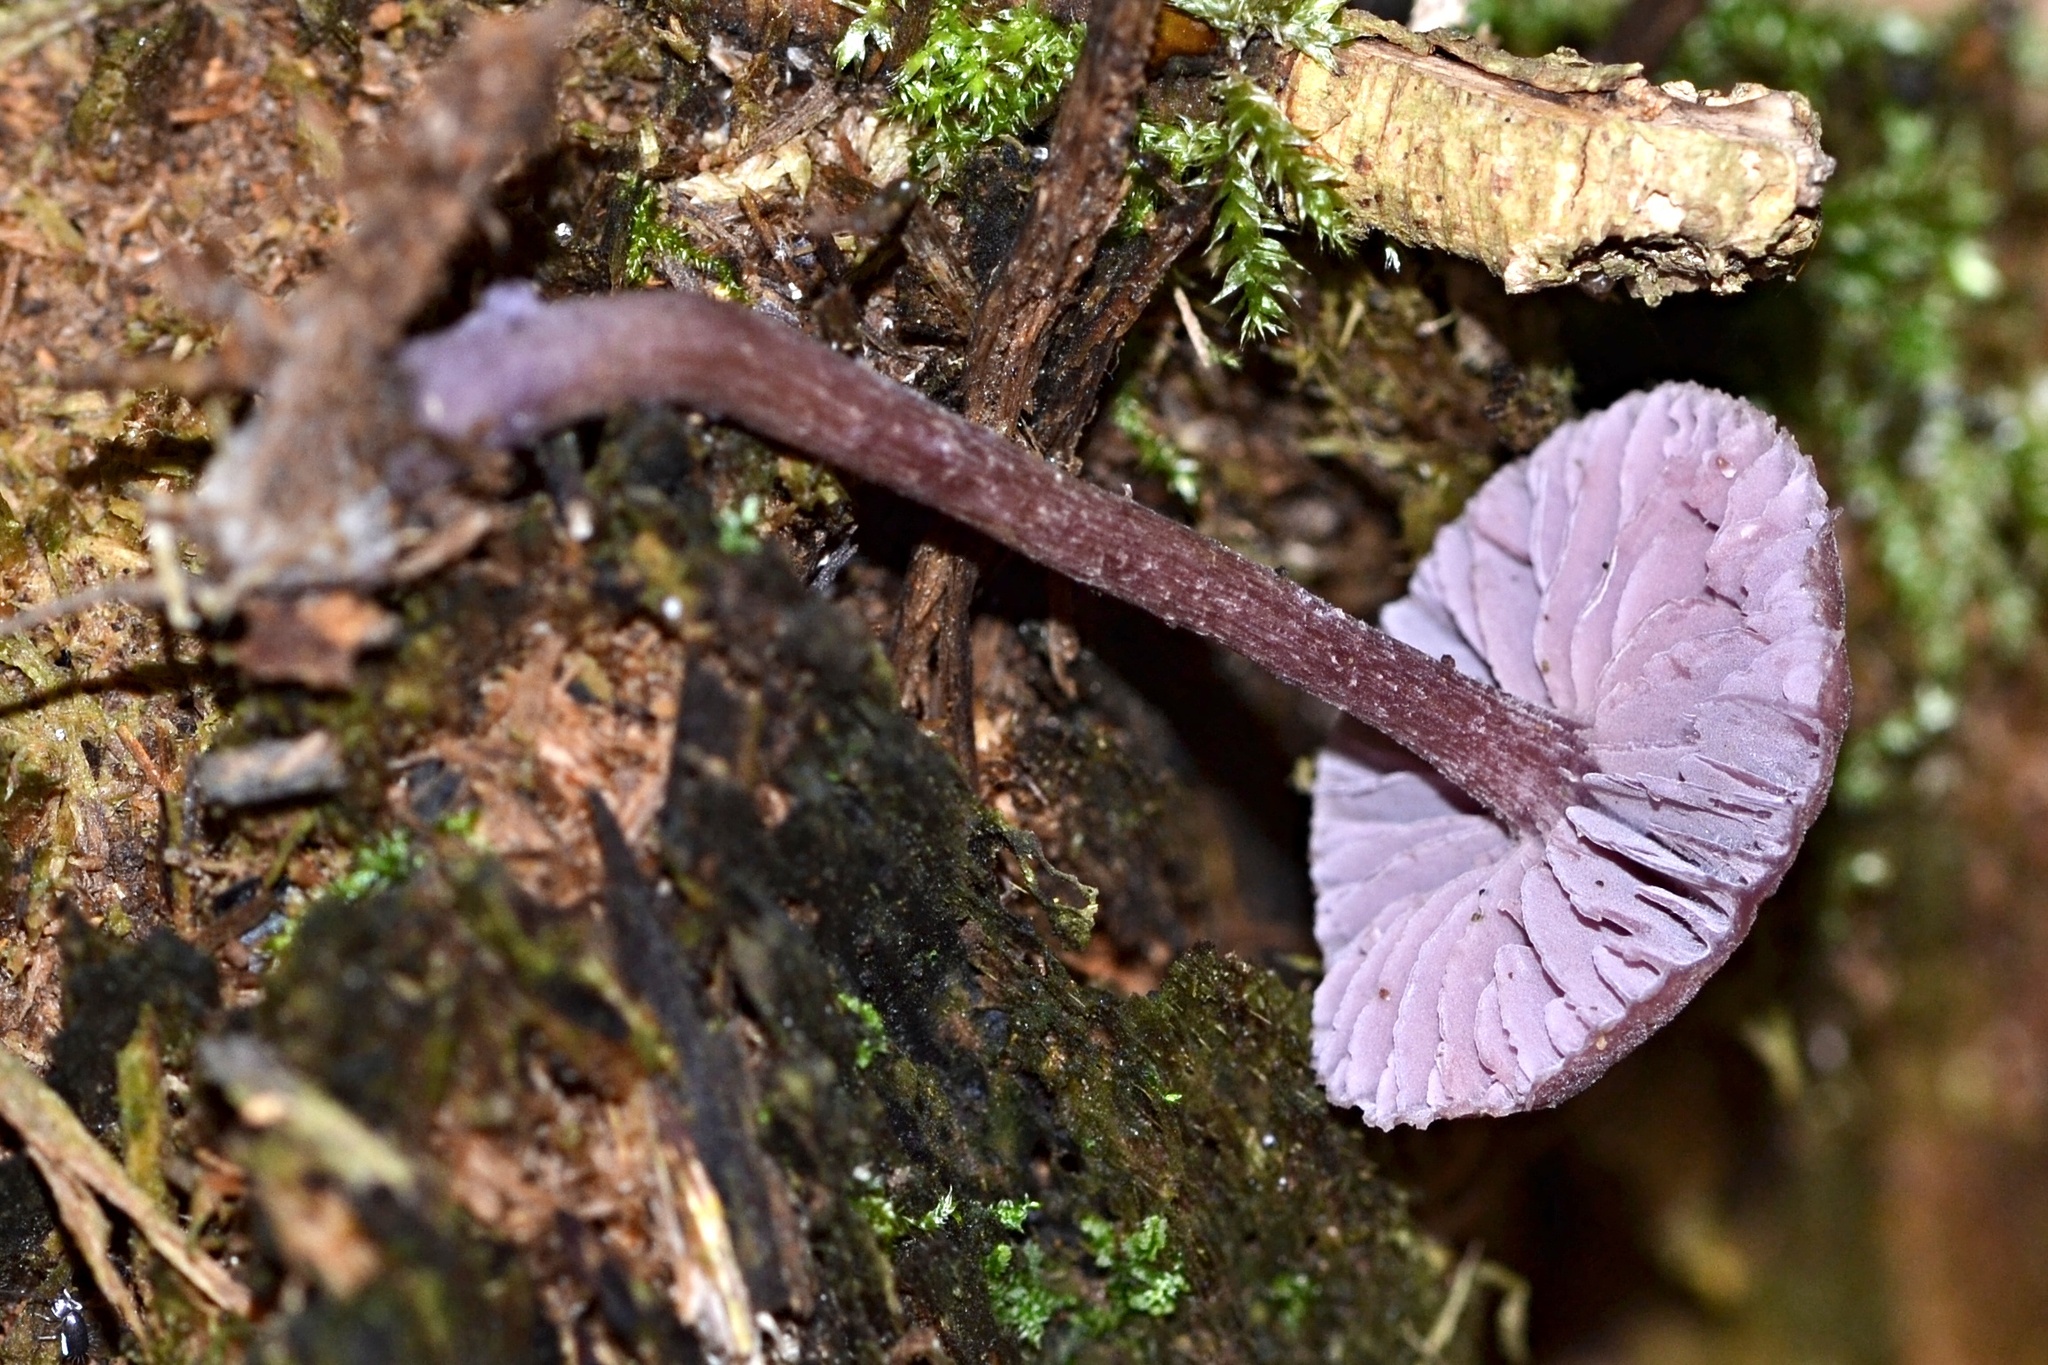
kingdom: Fungi
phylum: Basidiomycota
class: Agaricomycetes
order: Agaricales
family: Hydnangiaceae
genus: Laccaria
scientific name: Laccaria amethystina
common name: Amethyst deceiver
